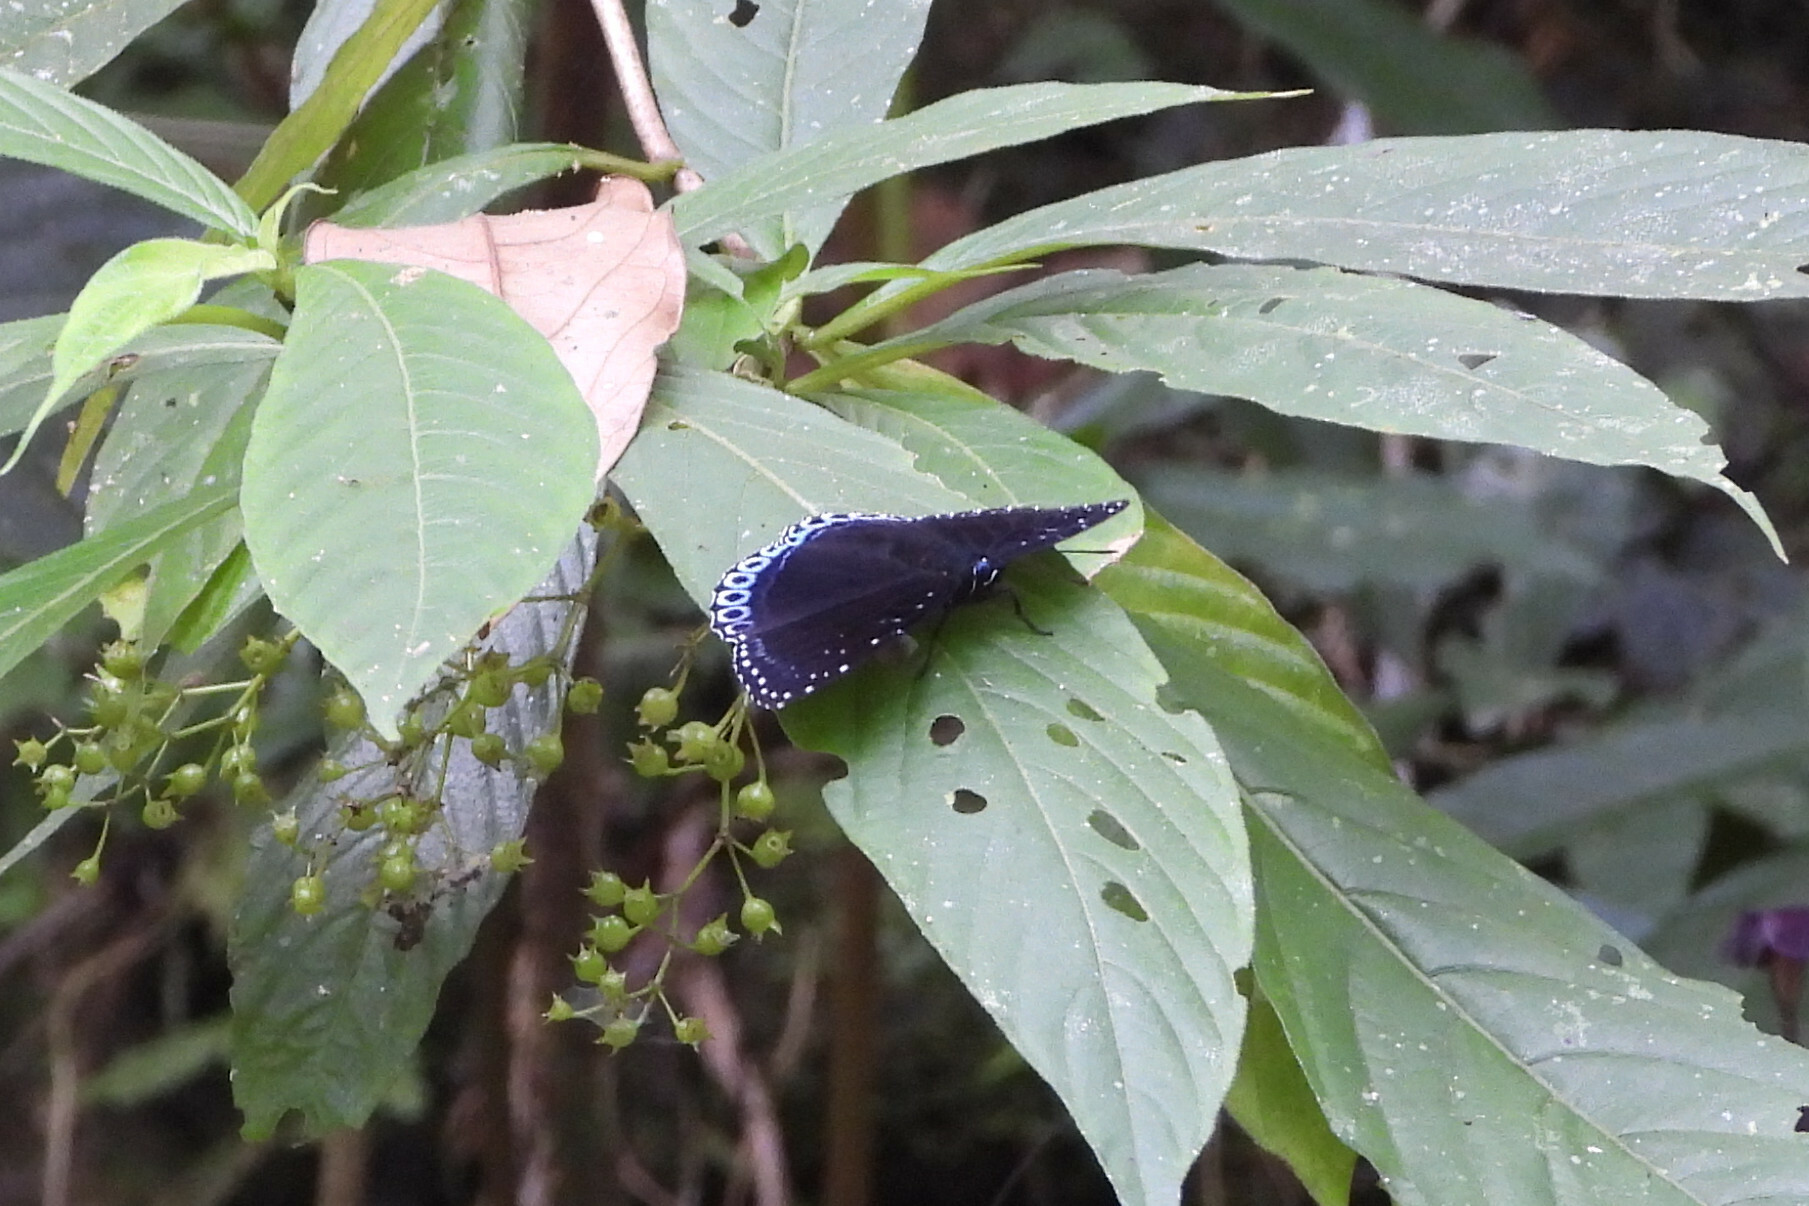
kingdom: Animalia
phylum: Arthropoda
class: Insecta
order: Lepidoptera
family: Nymphalidae
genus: Stibochiona
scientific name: Stibochiona nicea
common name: Popinjay
